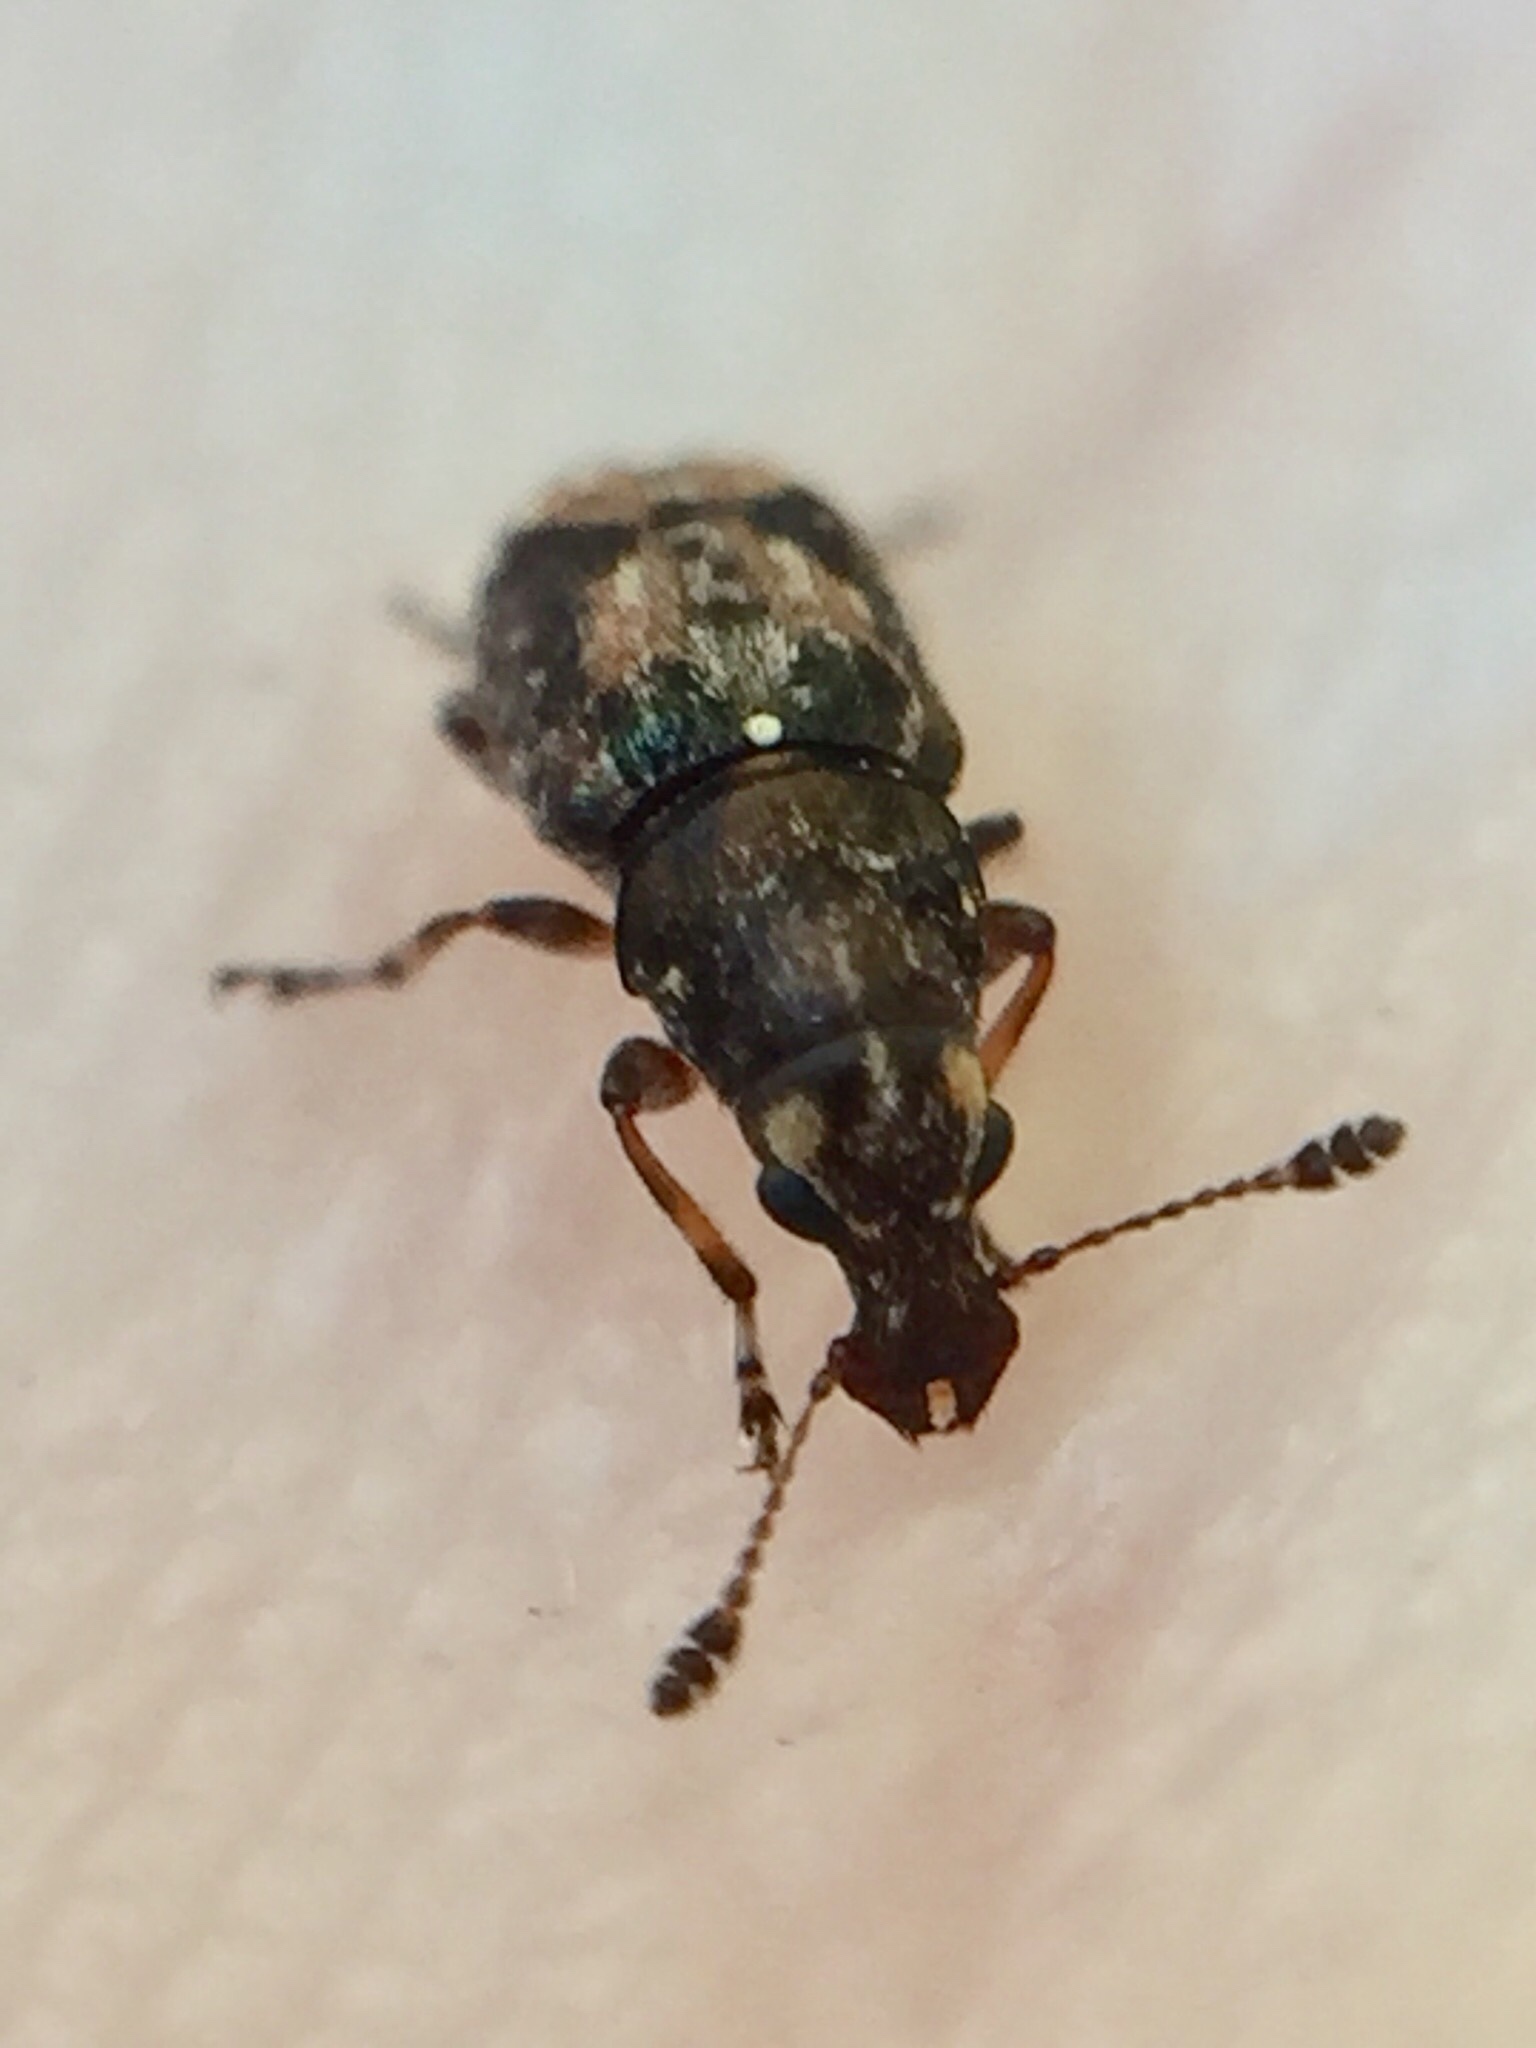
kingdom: Animalia
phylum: Arthropoda
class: Insecta
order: Coleoptera
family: Anthribidae
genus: Sharpius
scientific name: Sharpius
